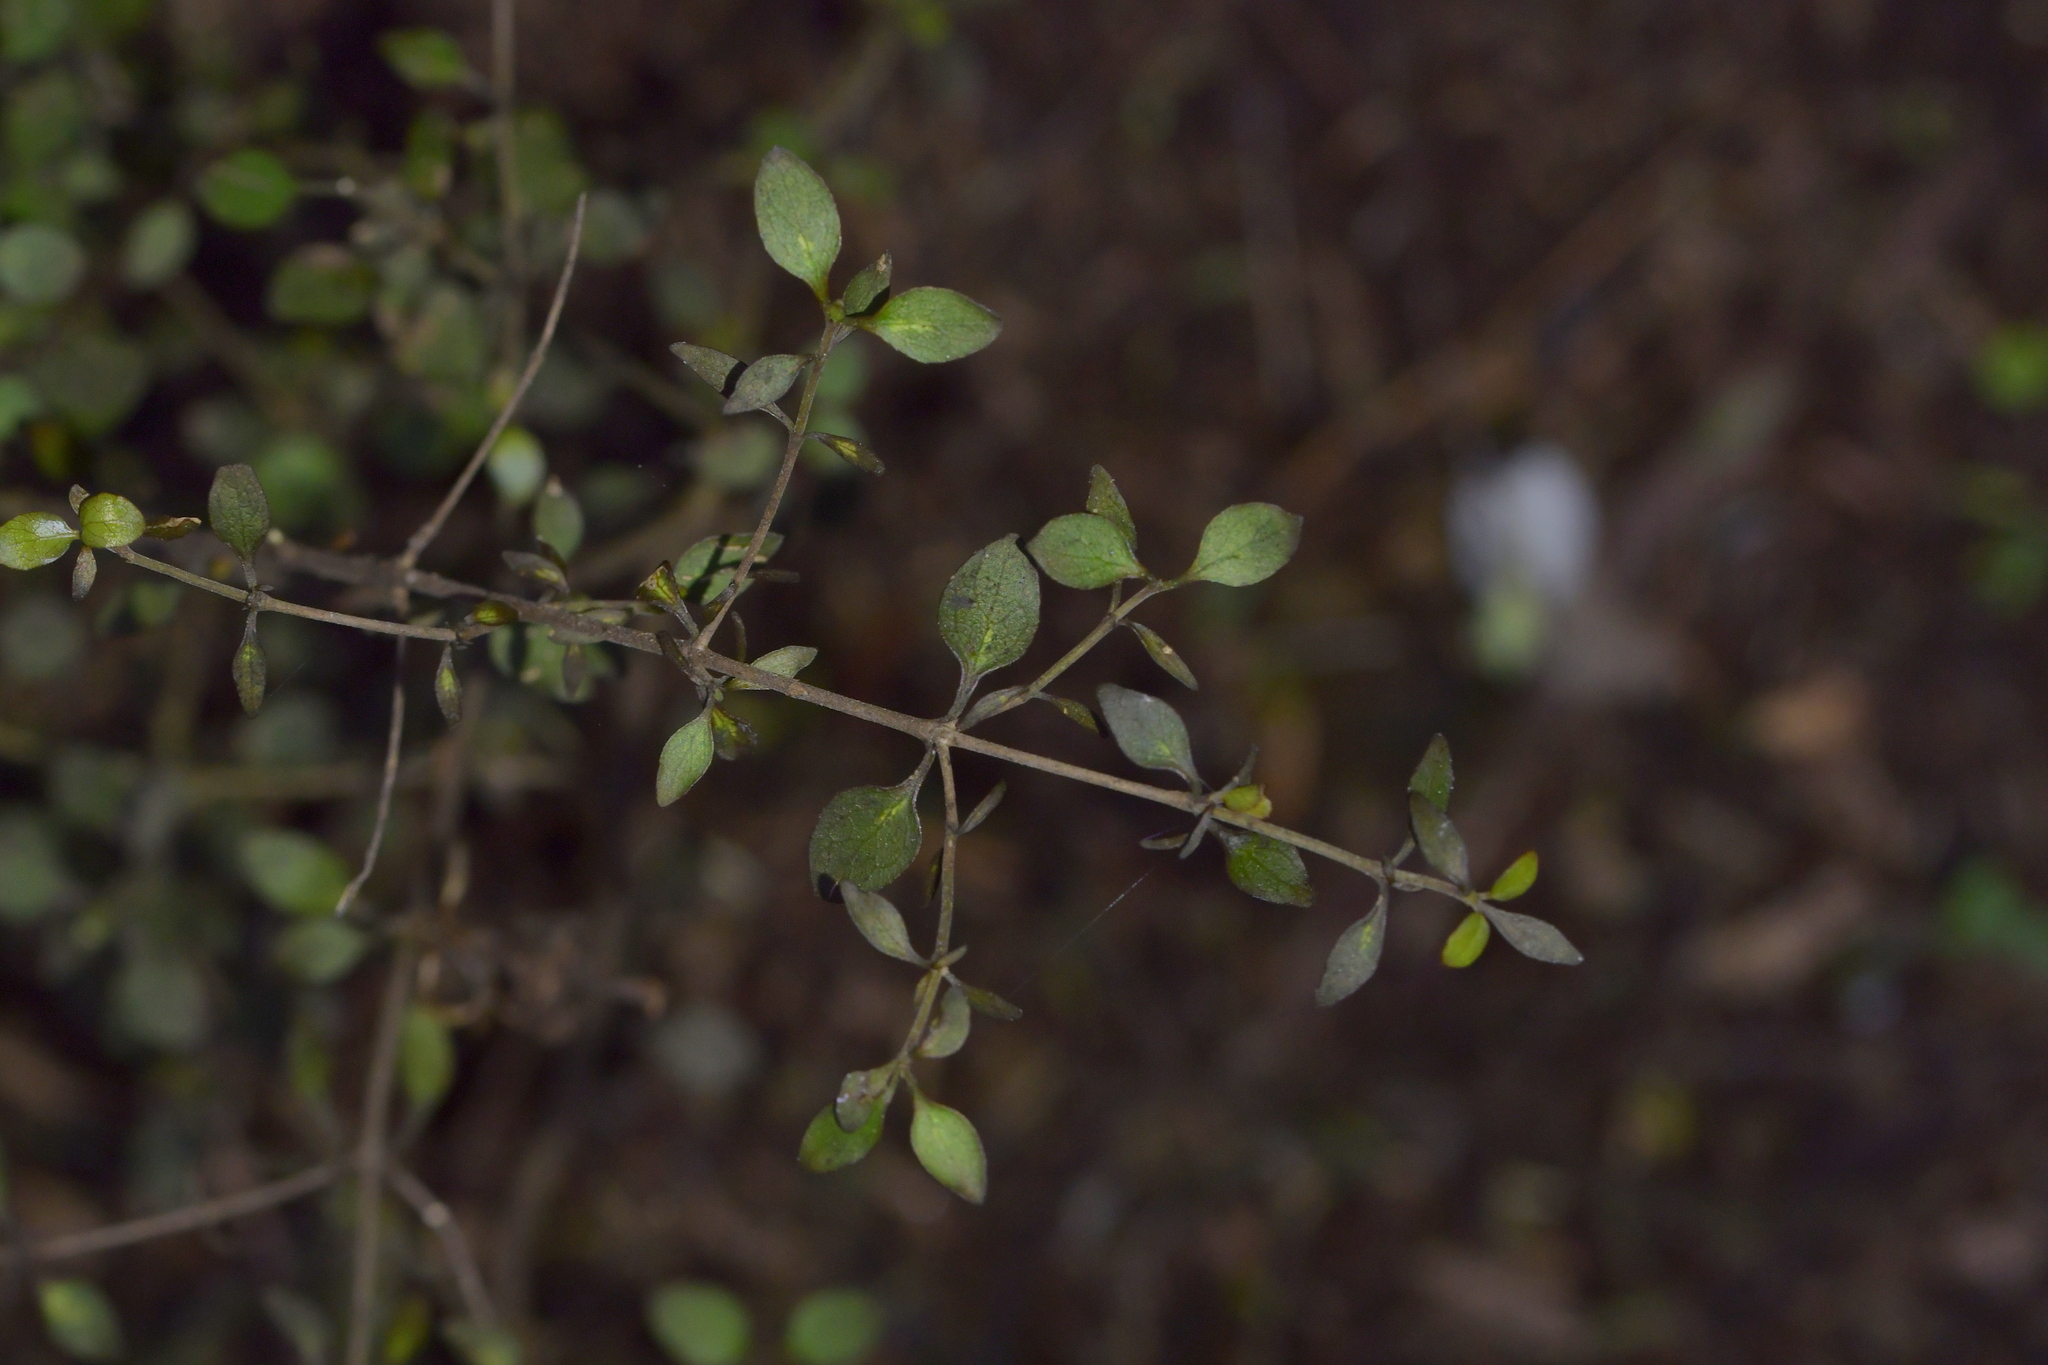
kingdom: Plantae
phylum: Tracheophyta
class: Magnoliopsida
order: Gentianales
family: Rubiaceae
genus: Coprosma
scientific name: Coprosma rhamnoides
